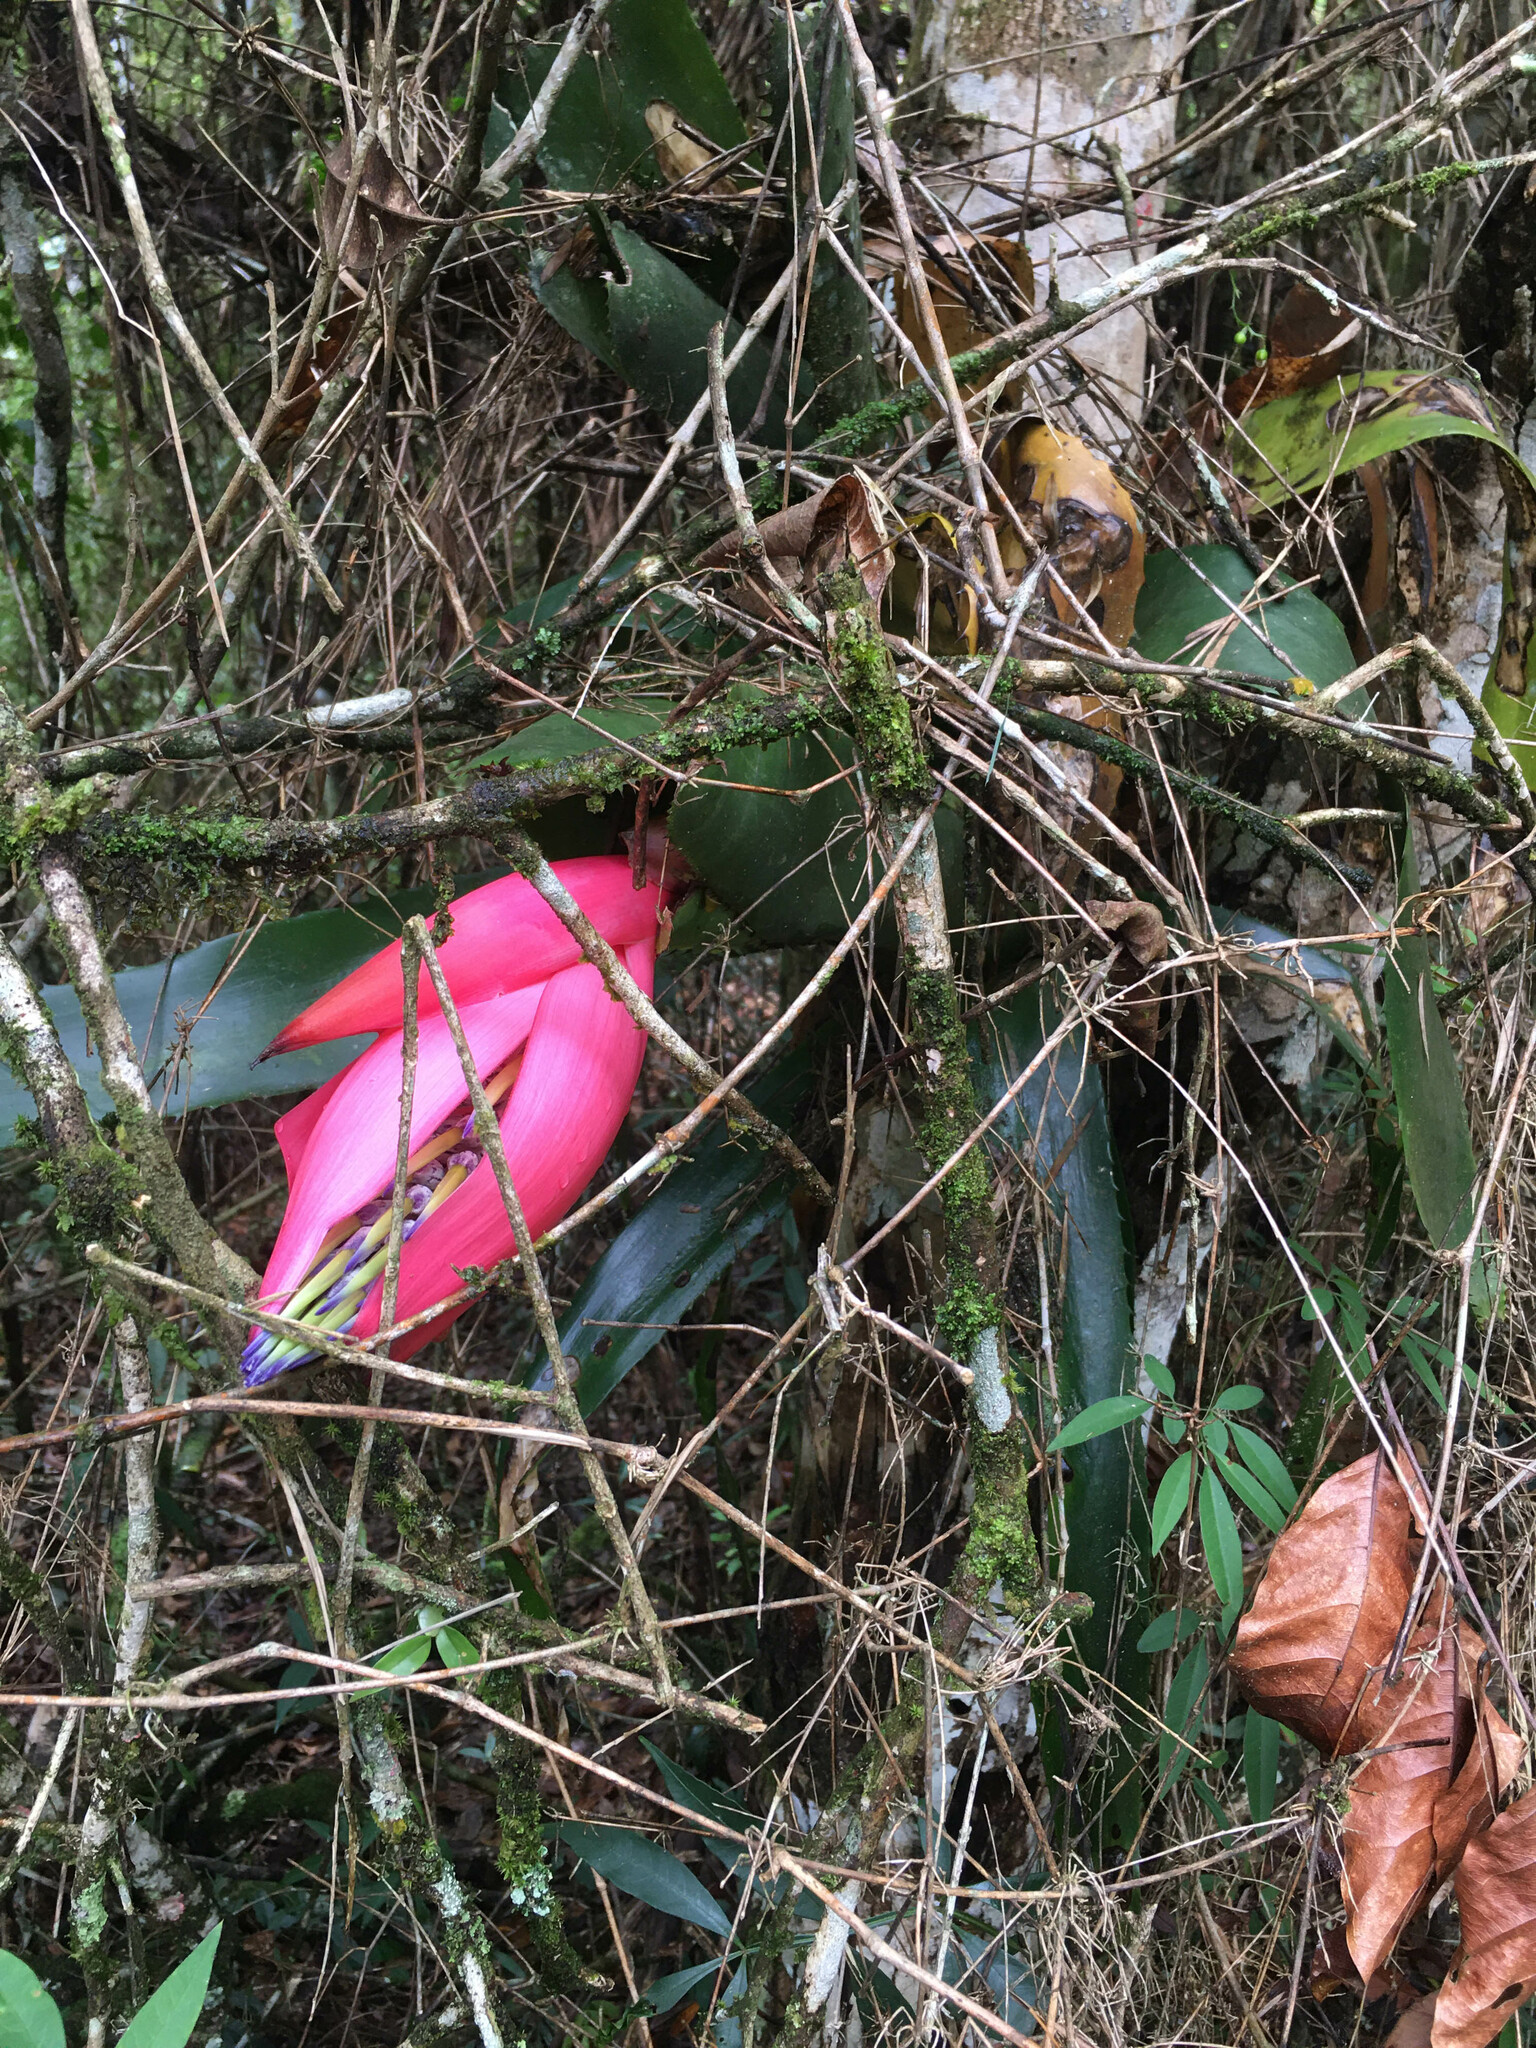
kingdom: Plantae
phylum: Tracheophyta
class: Liliopsida
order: Poales
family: Bromeliaceae
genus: Billbergia
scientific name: Billbergia alfonsi-joannis
